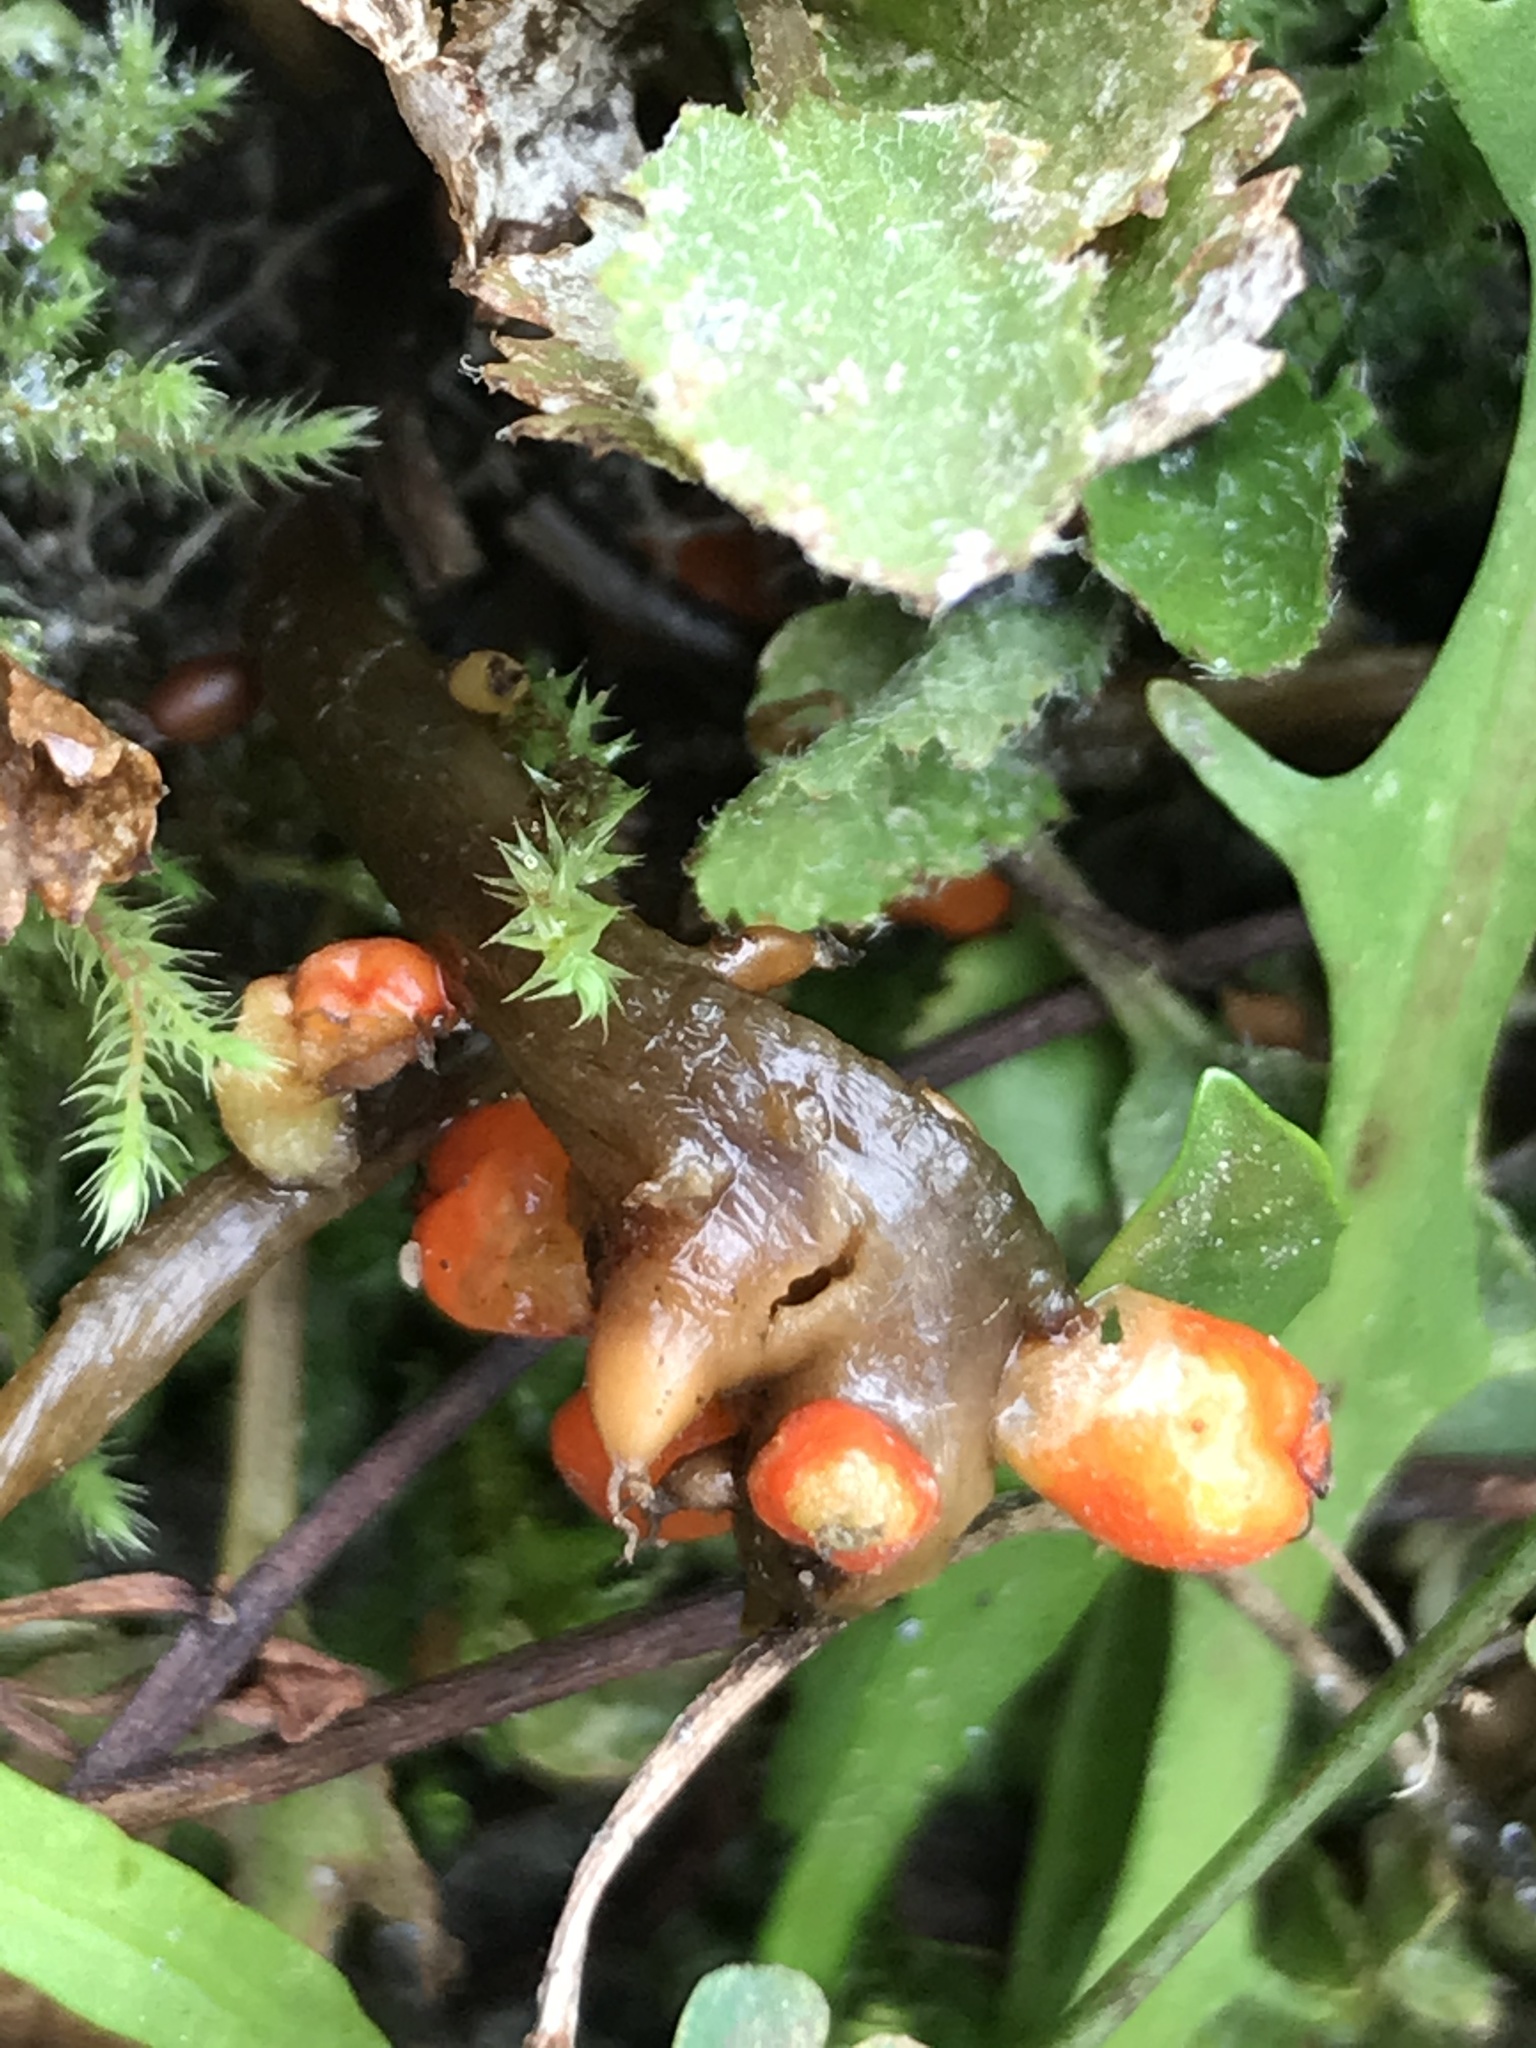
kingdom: Plantae
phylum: Tracheophyta
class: Magnoliopsida
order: Gunnerales
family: Gunneraceae
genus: Gunnera
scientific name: Gunnera dentata
